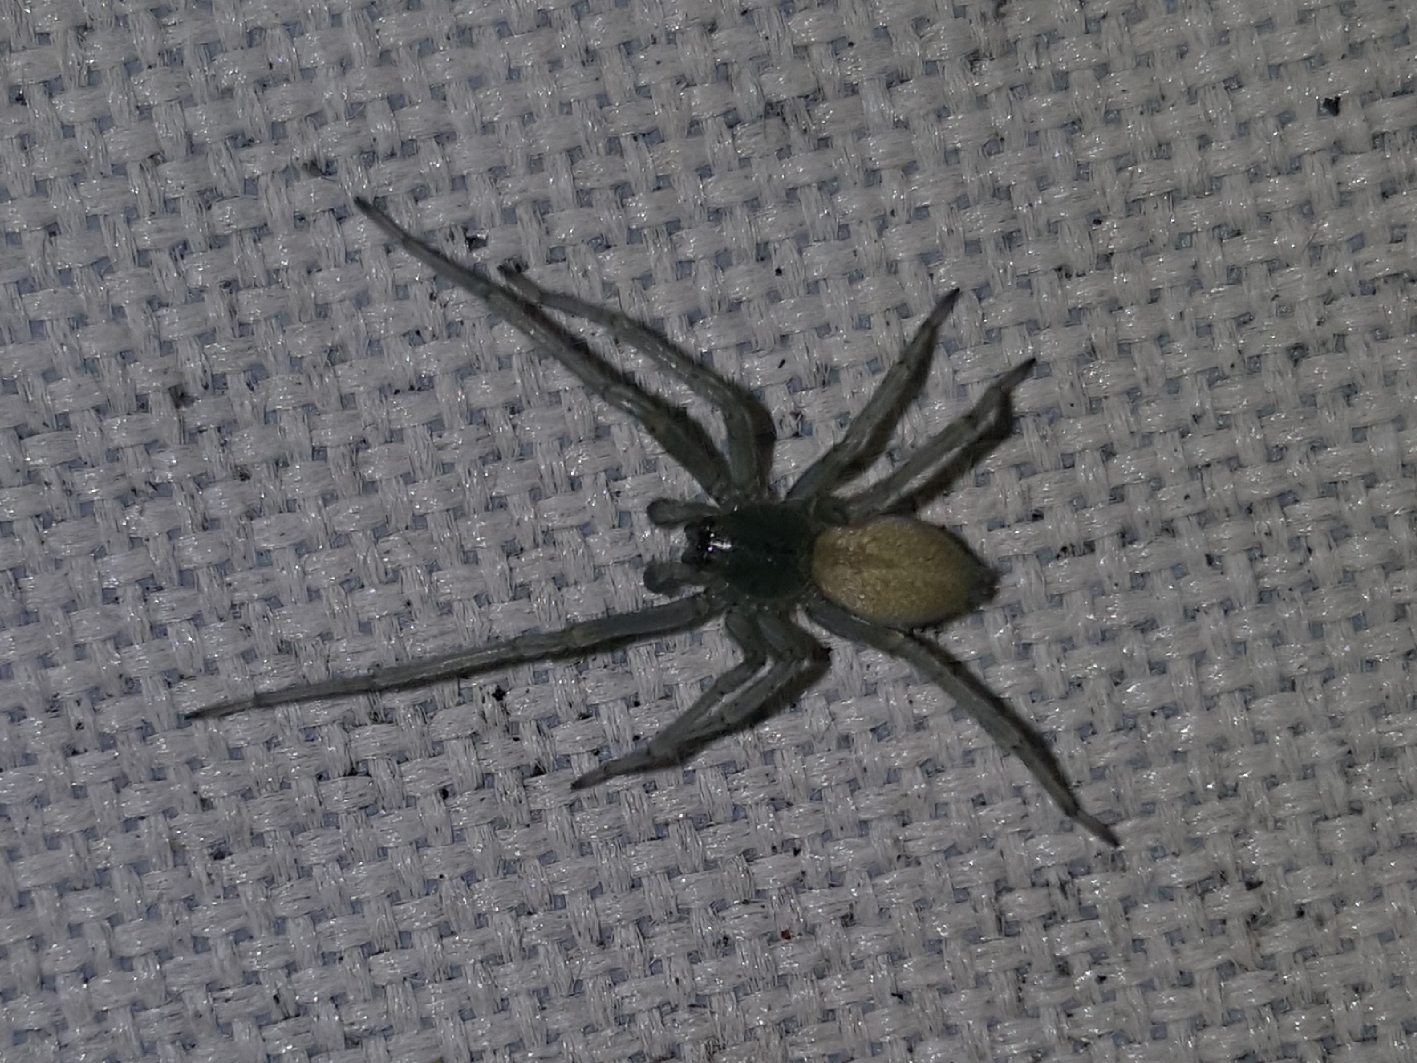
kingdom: Animalia
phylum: Arthropoda
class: Arachnida
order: Araneae
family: Cheiracanthiidae
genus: Cheiracanthium
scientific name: Cheiracanthium
